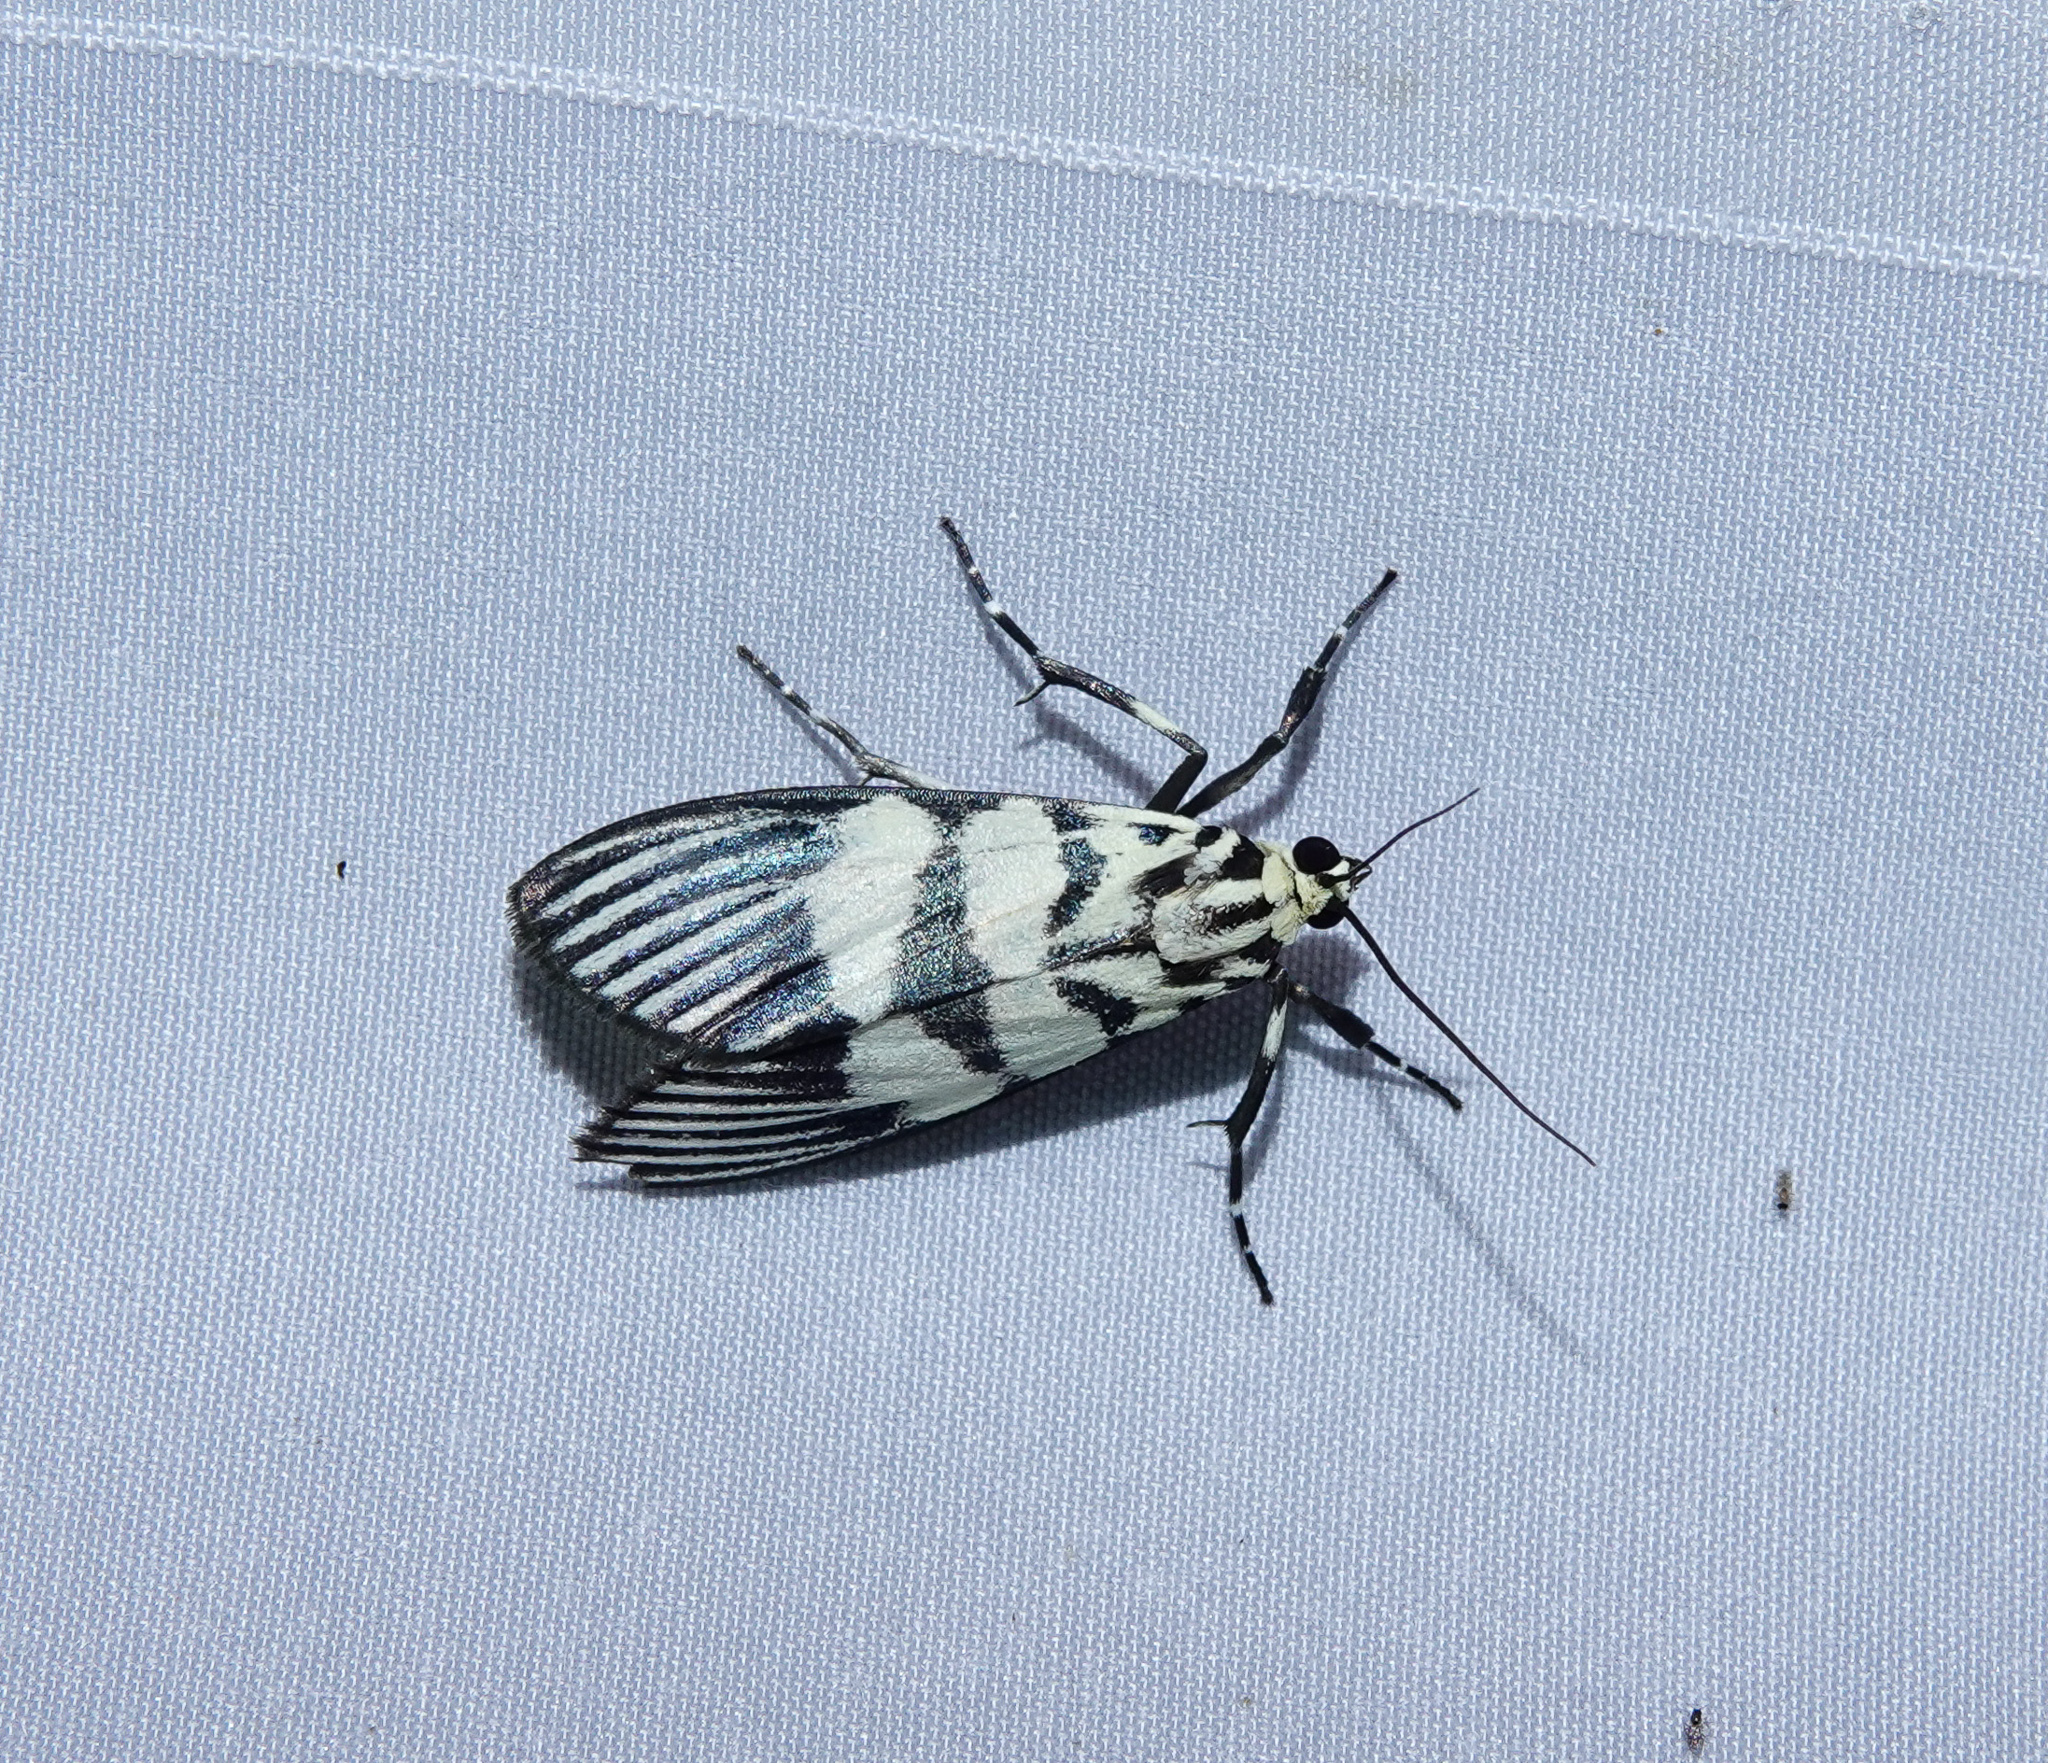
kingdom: Animalia
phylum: Arthropoda
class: Insecta
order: Lepidoptera
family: Crambidae
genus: Heortia
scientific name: Heortia vitessoides
